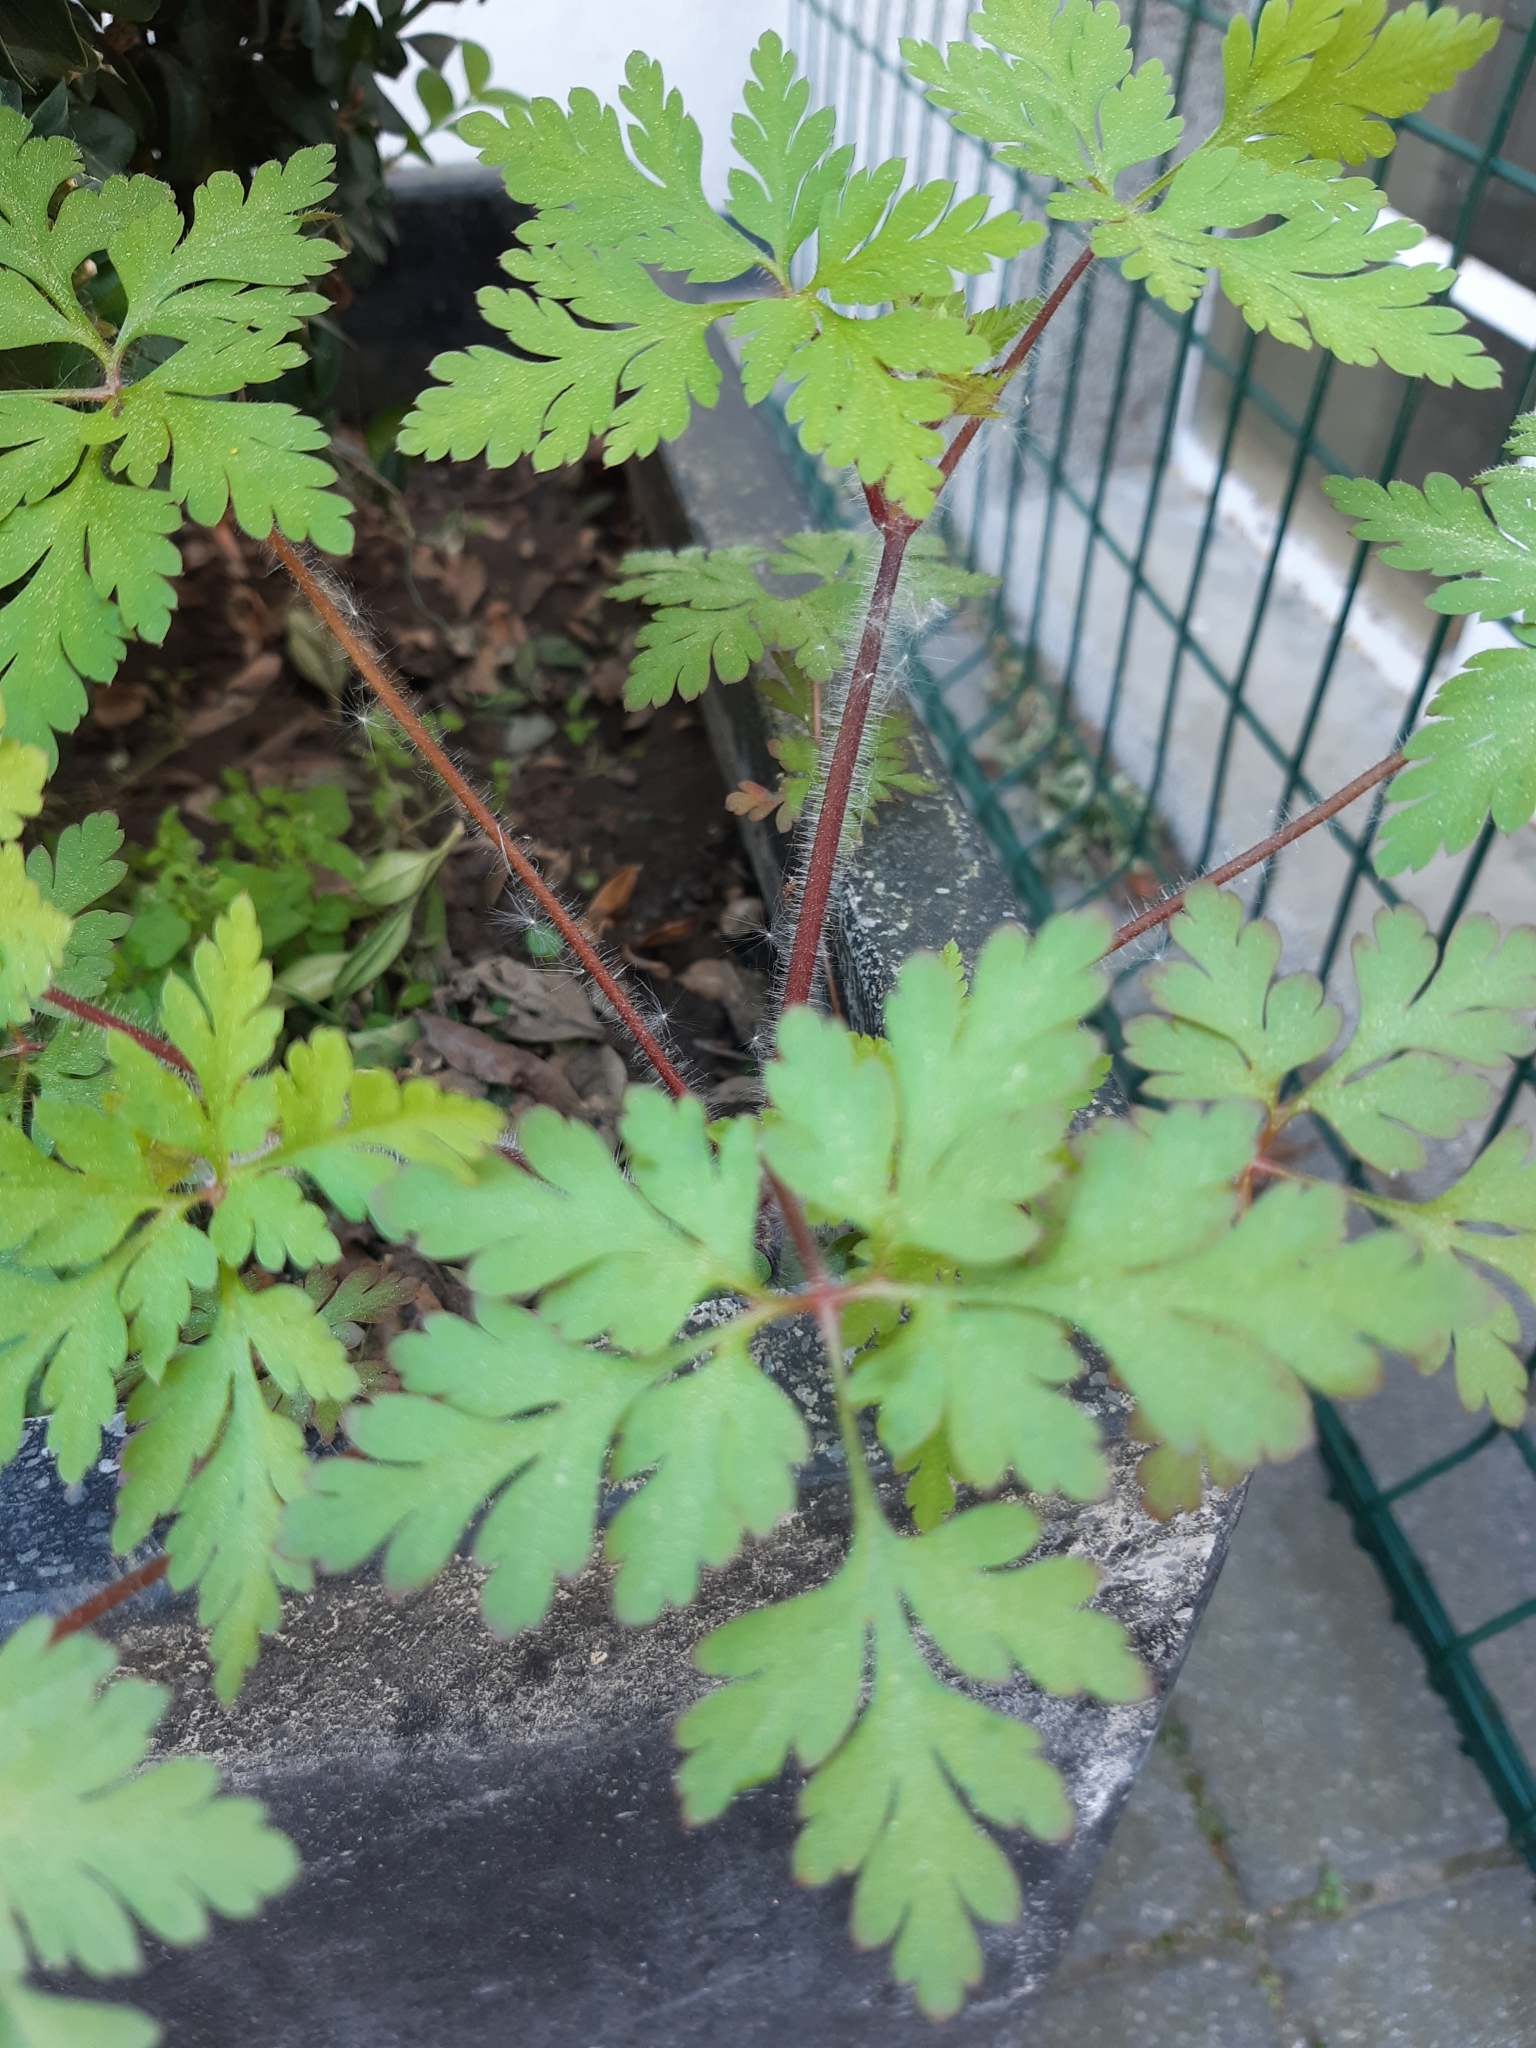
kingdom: Plantae
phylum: Tracheophyta
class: Magnoliopsida
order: Geraniales
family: Geraniaceae
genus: Geranium
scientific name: Geranium robertianum
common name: Herb-robert
